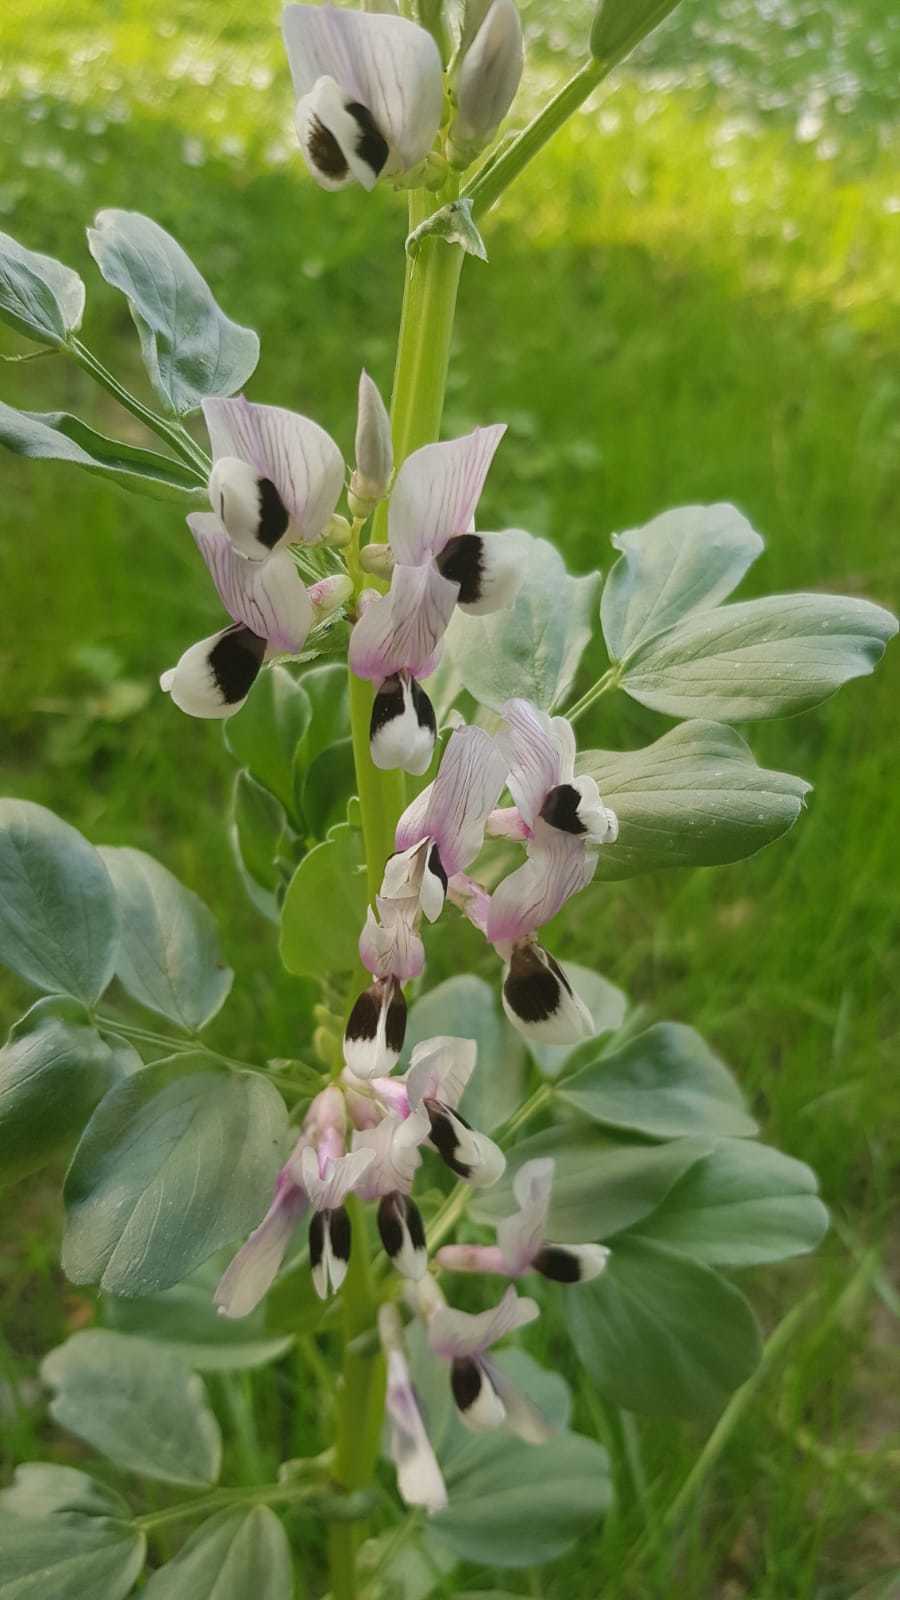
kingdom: Plantae
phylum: Tracheophyta
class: Magnoliopsida
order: Fabales
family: Fabaceae
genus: Vicia
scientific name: Vicia faba
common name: Broad bean
